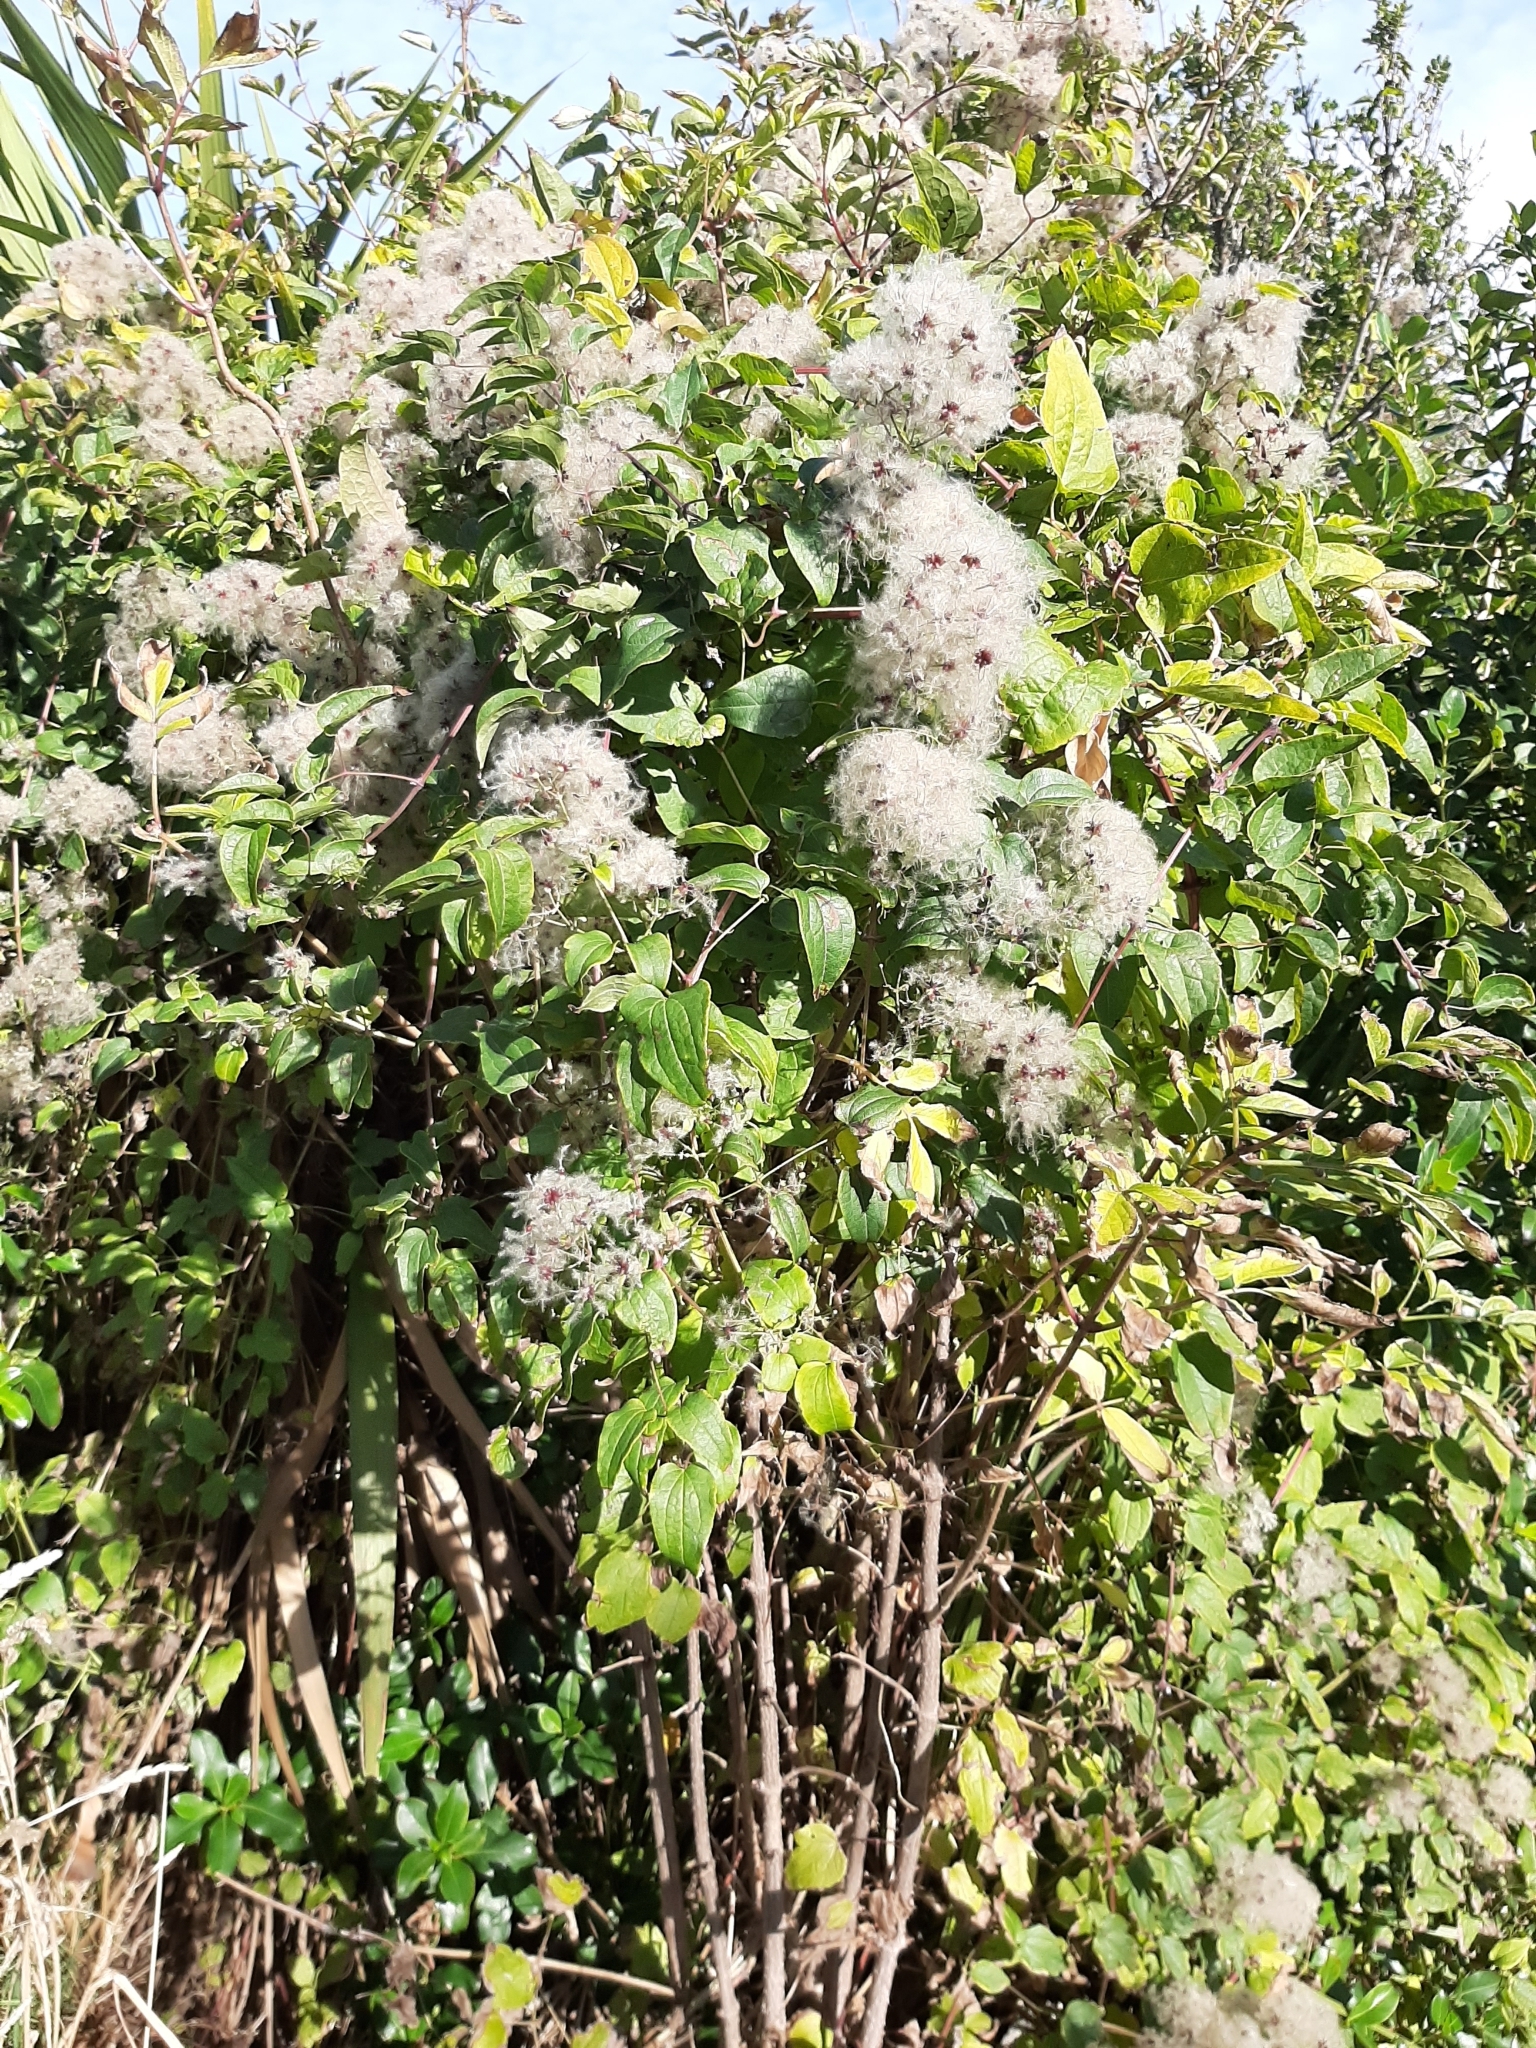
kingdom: Plantae
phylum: Tracheophyta
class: Magnoliopsida
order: Ranunculales
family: Ranunculaceae
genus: Clematis
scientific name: Clematis vitalba
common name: Evergreen clematis
